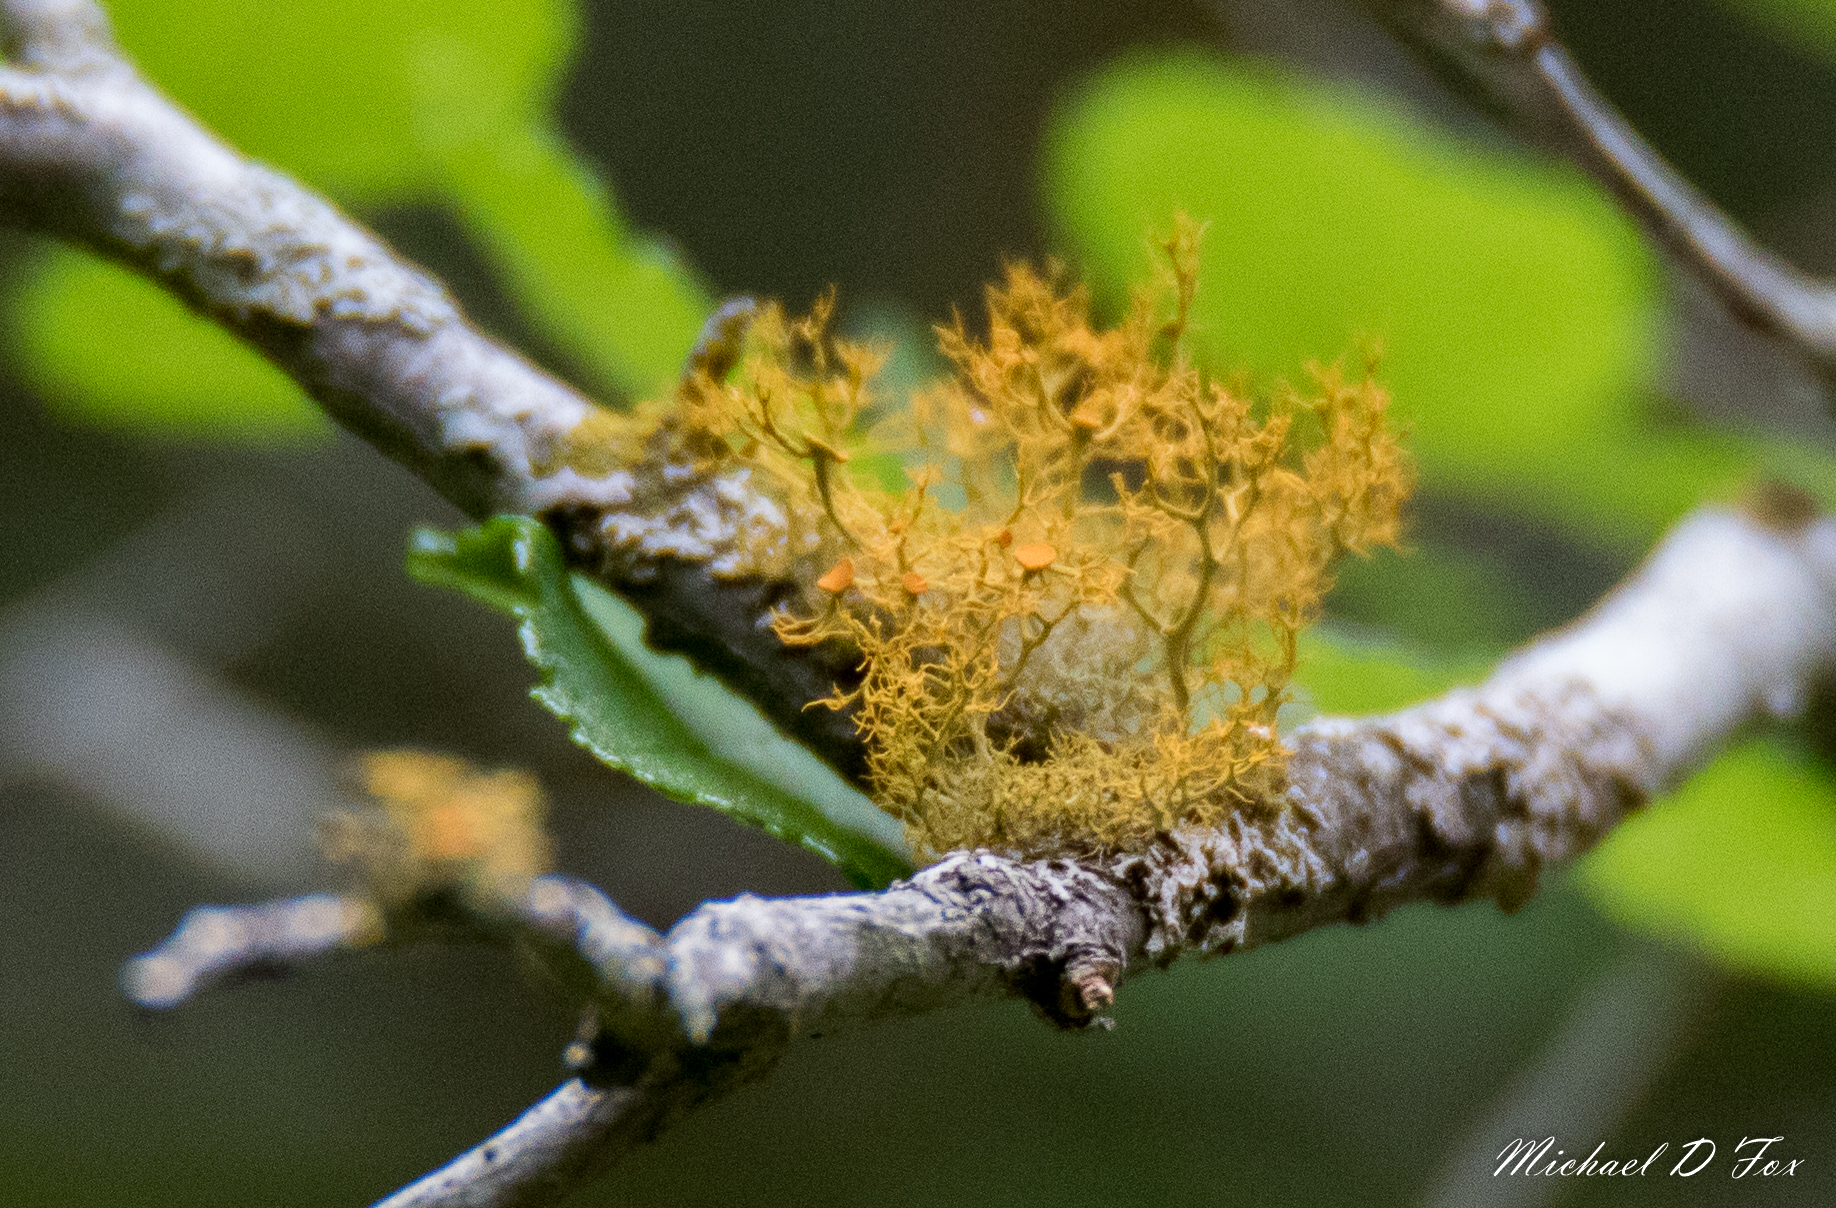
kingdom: Fungi
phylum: Ascomycota
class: Lecanoromycetes
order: Teloschistales
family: Teloschistaceae
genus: Teloschistes
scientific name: Teloschistes exilis
